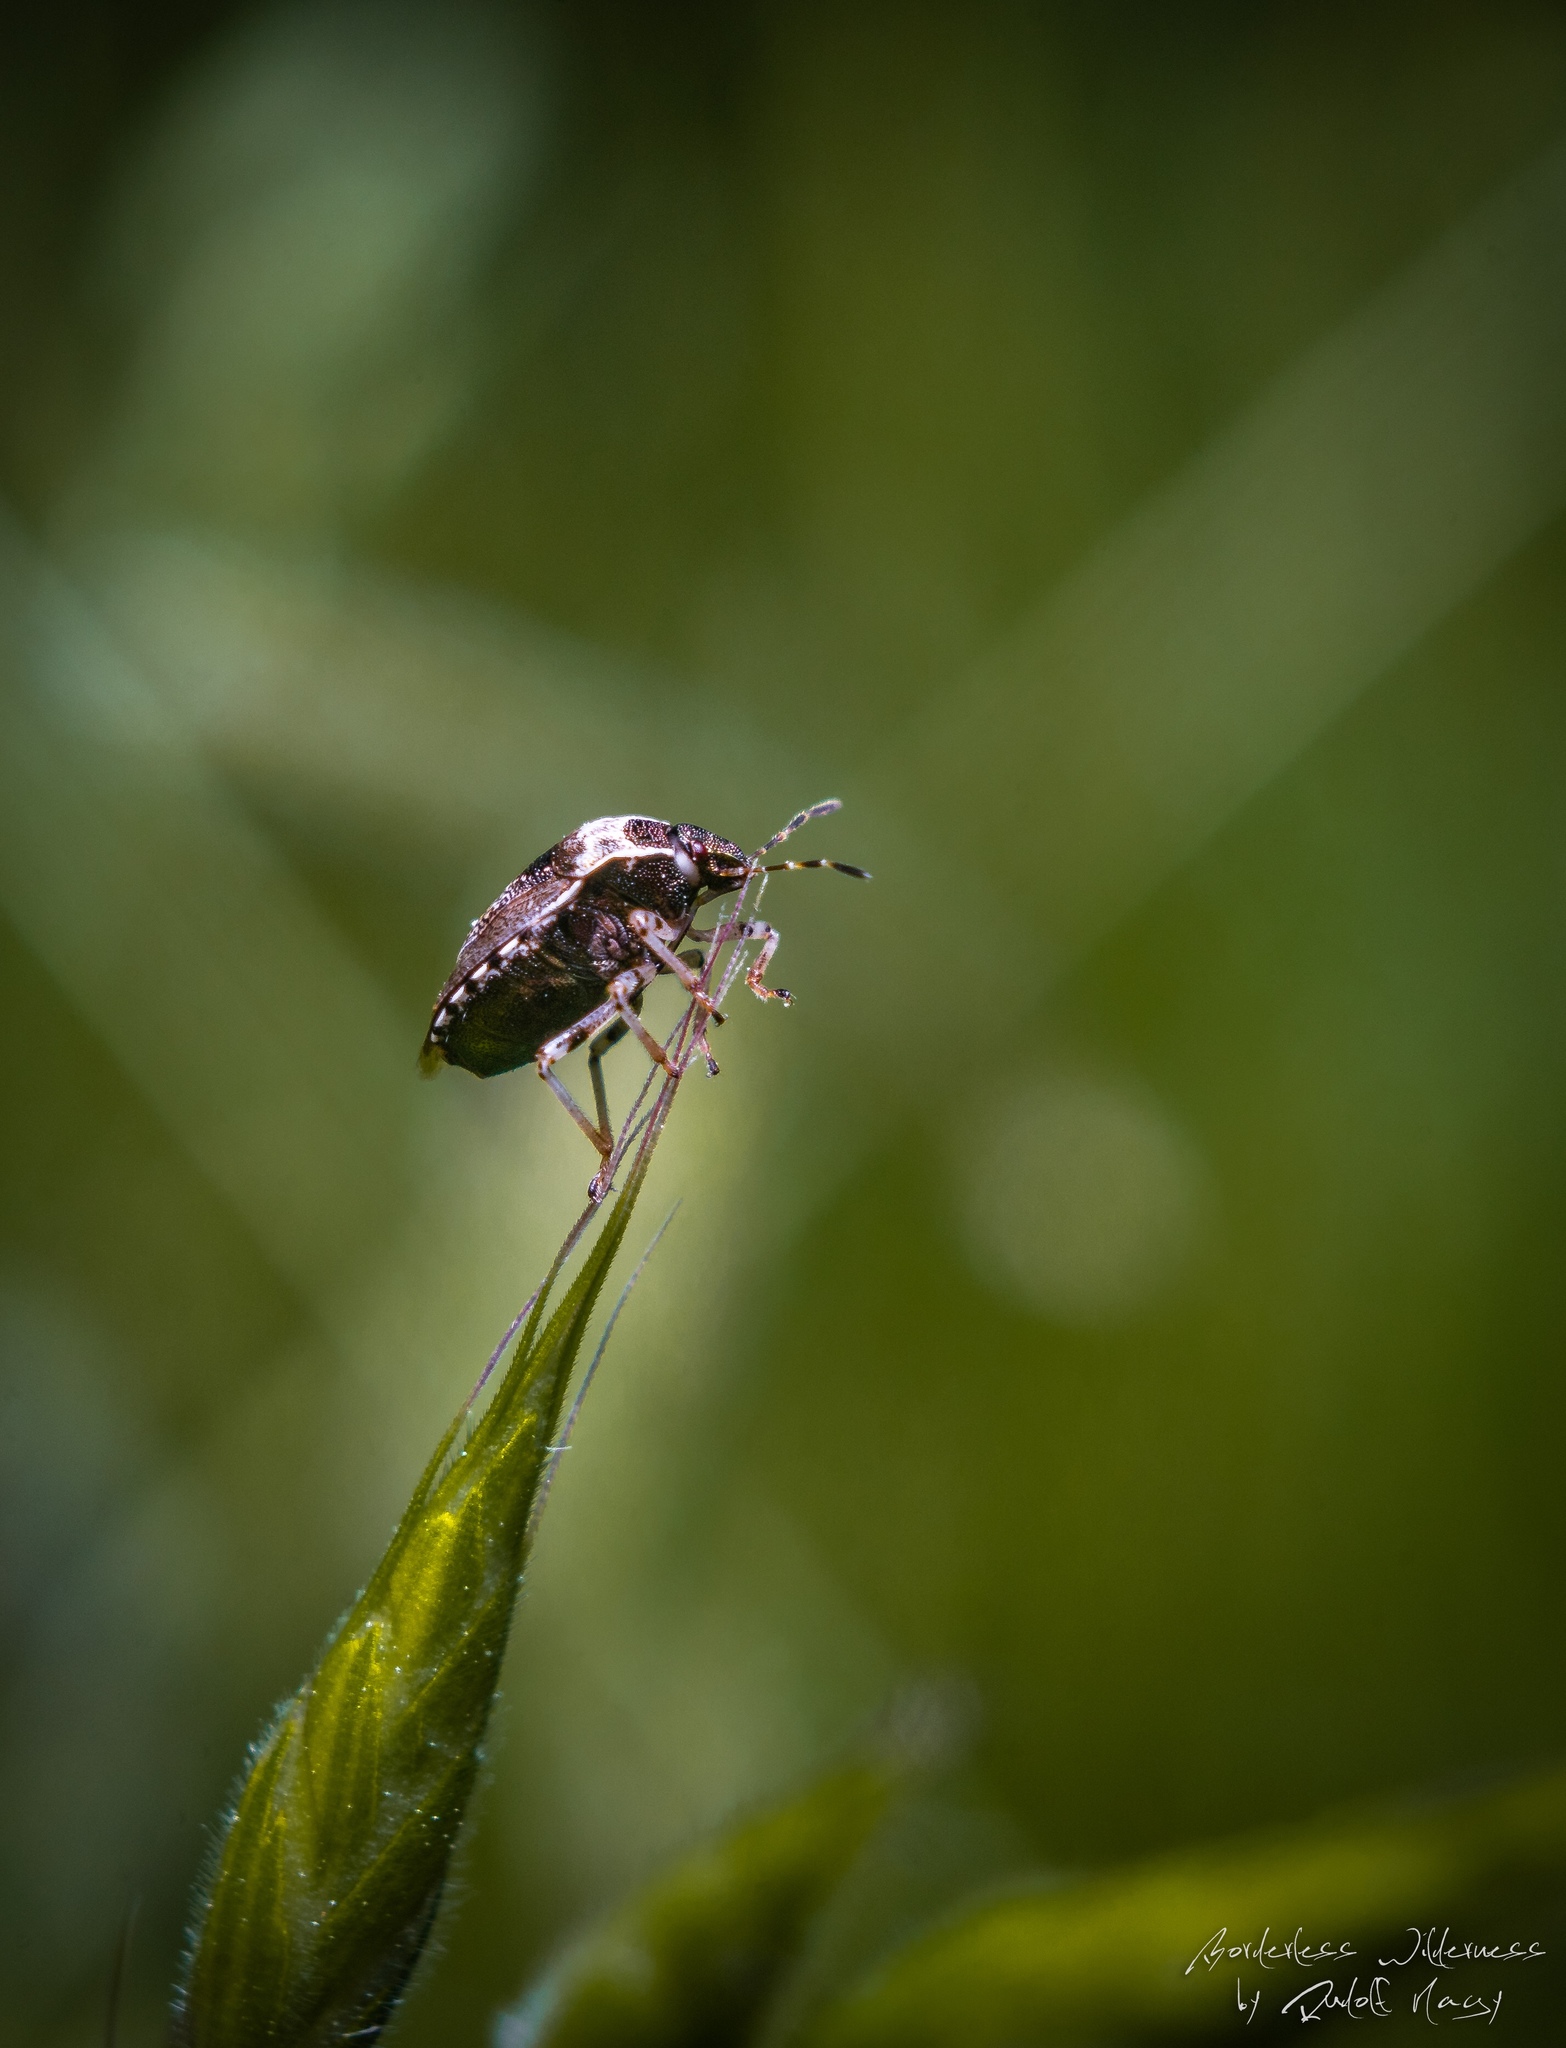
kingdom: Animalia
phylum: Arthropoda
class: Insecta
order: Hemiptera
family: Pentatomidae
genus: Eysarcoris
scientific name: Eysarcoris venustissimus
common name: Woundwort shieldbug
